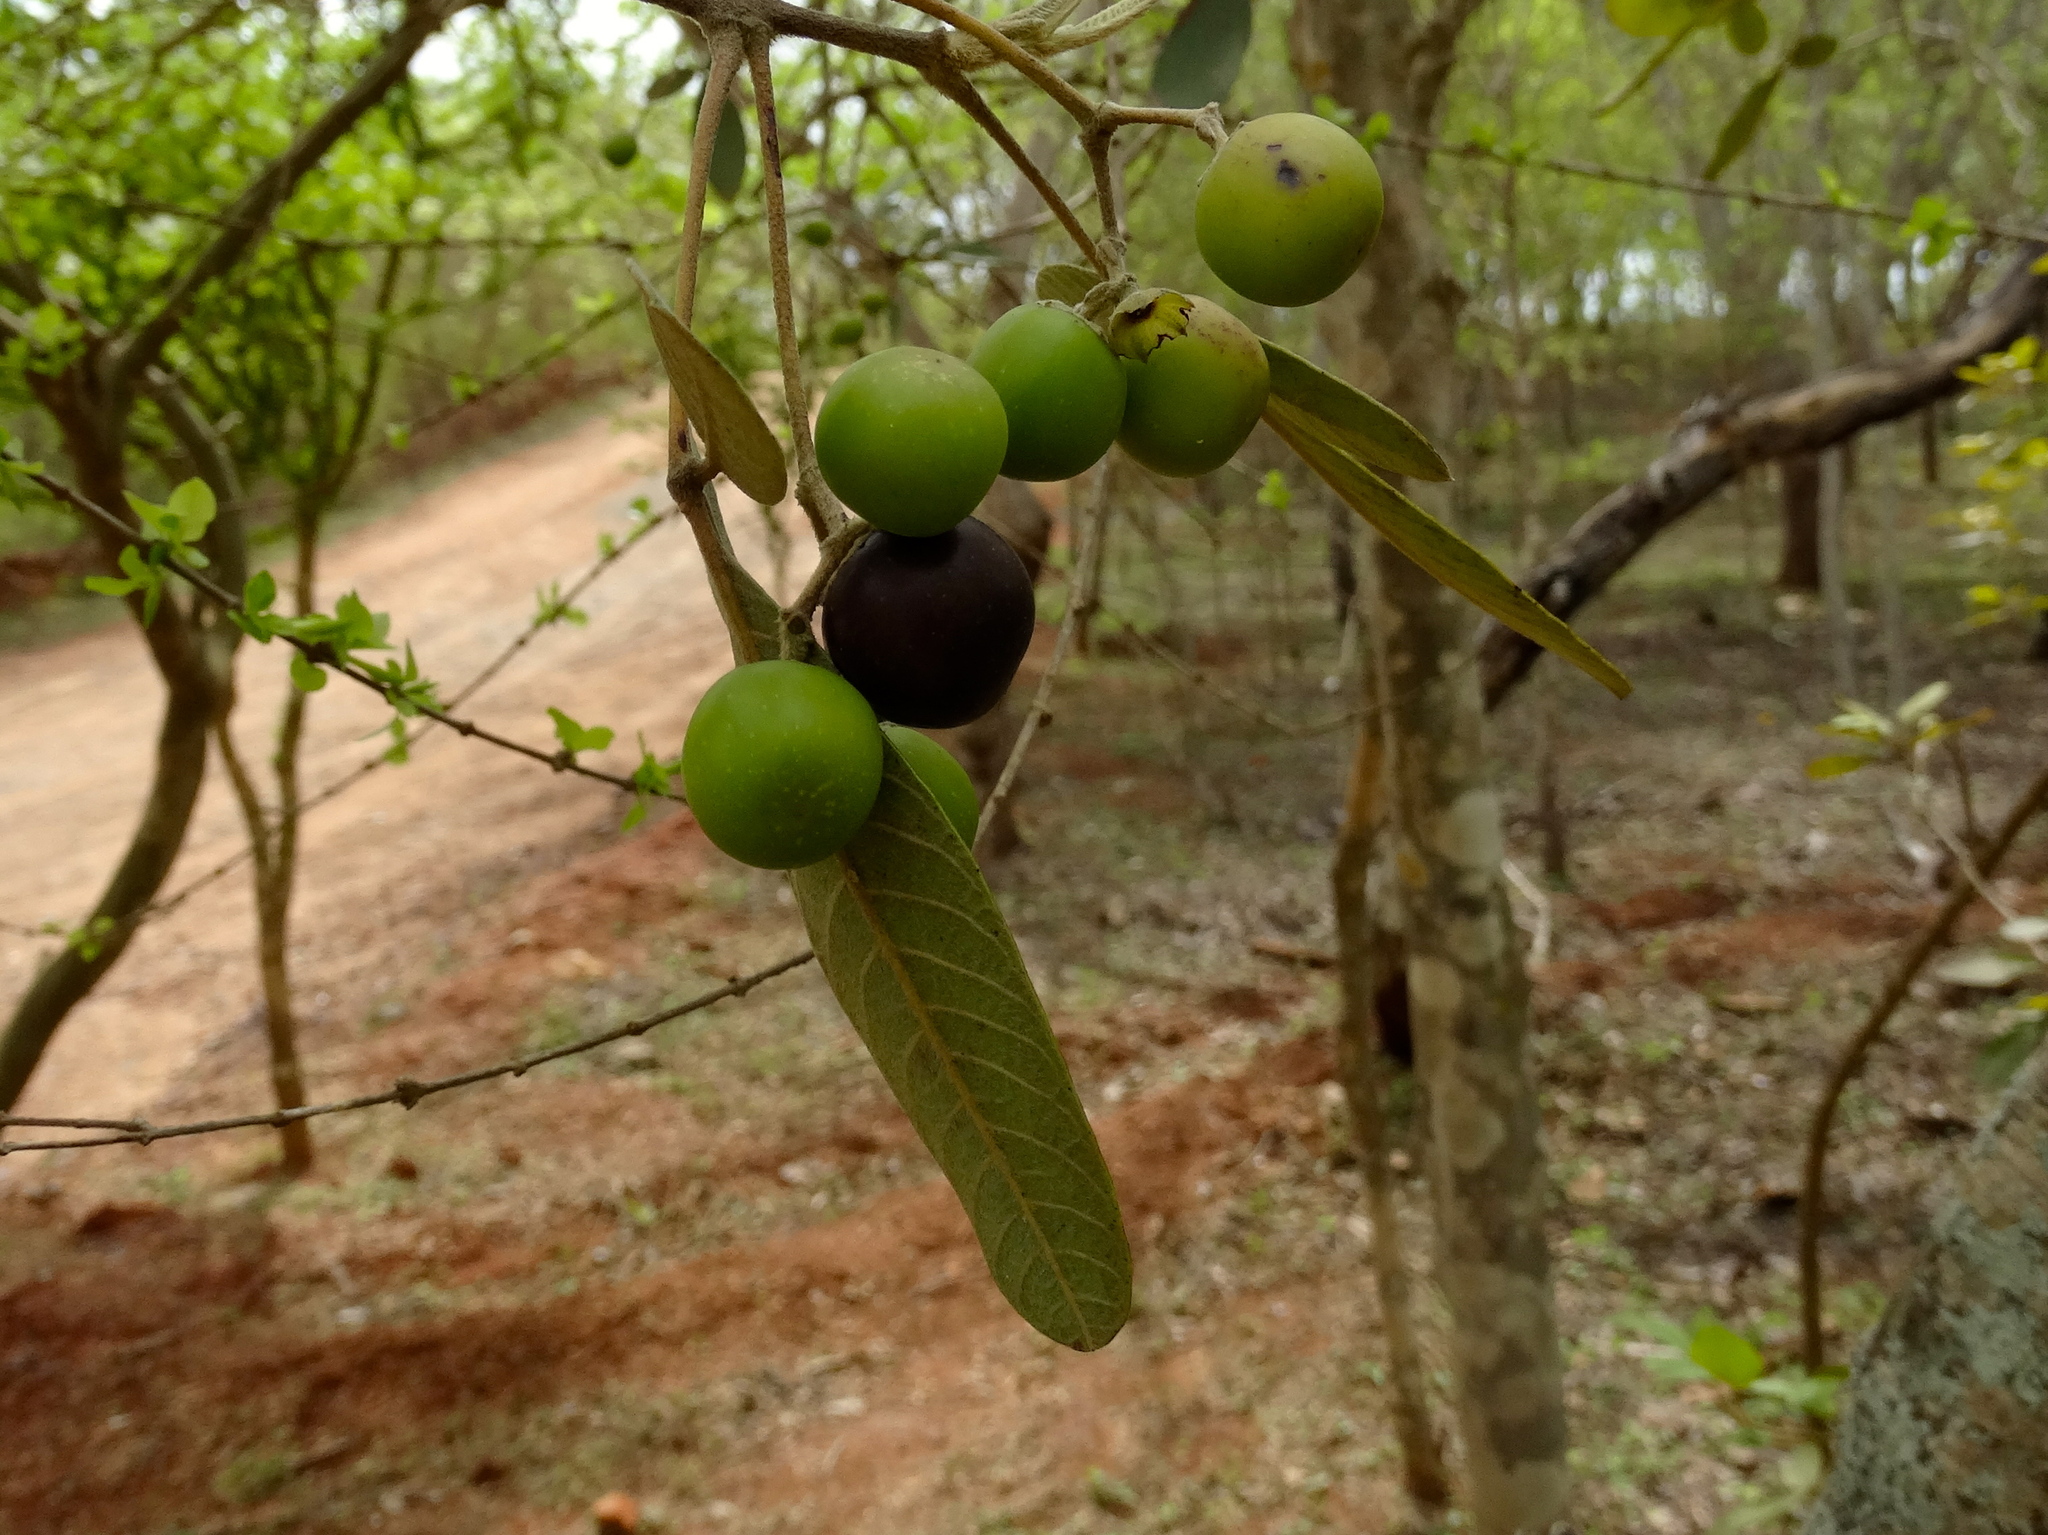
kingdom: Plantae
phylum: Tracheophyta
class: Magnoliopsida
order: Lamiales
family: Lamiaceae
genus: Vitex
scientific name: Vitex mollis
